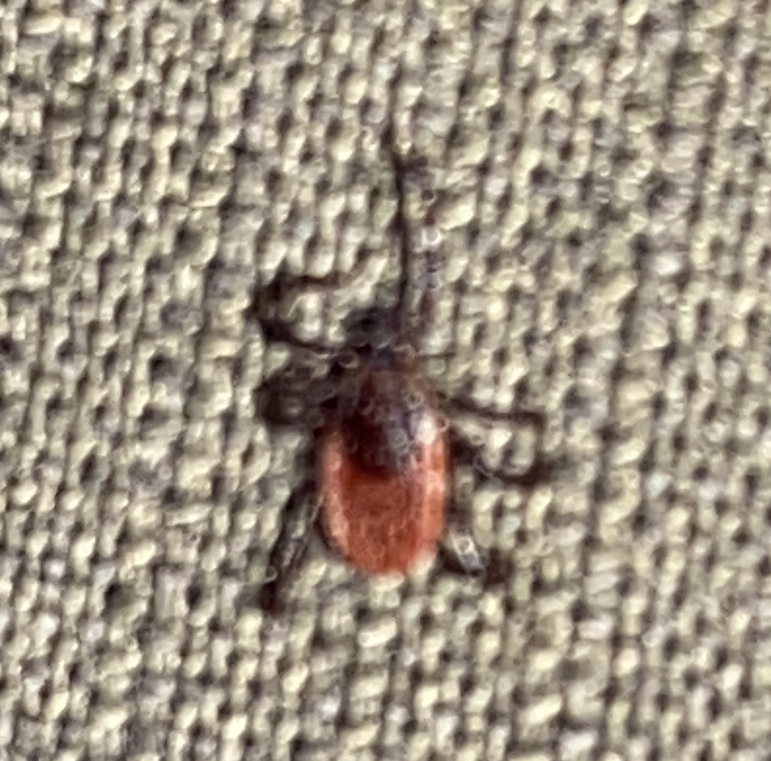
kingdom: Animalia
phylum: Arthropoda
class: Arachnida
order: Ixodida
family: Ixodidae
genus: Ixodes
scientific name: Ixodes pacificus
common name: California black-legged tick
